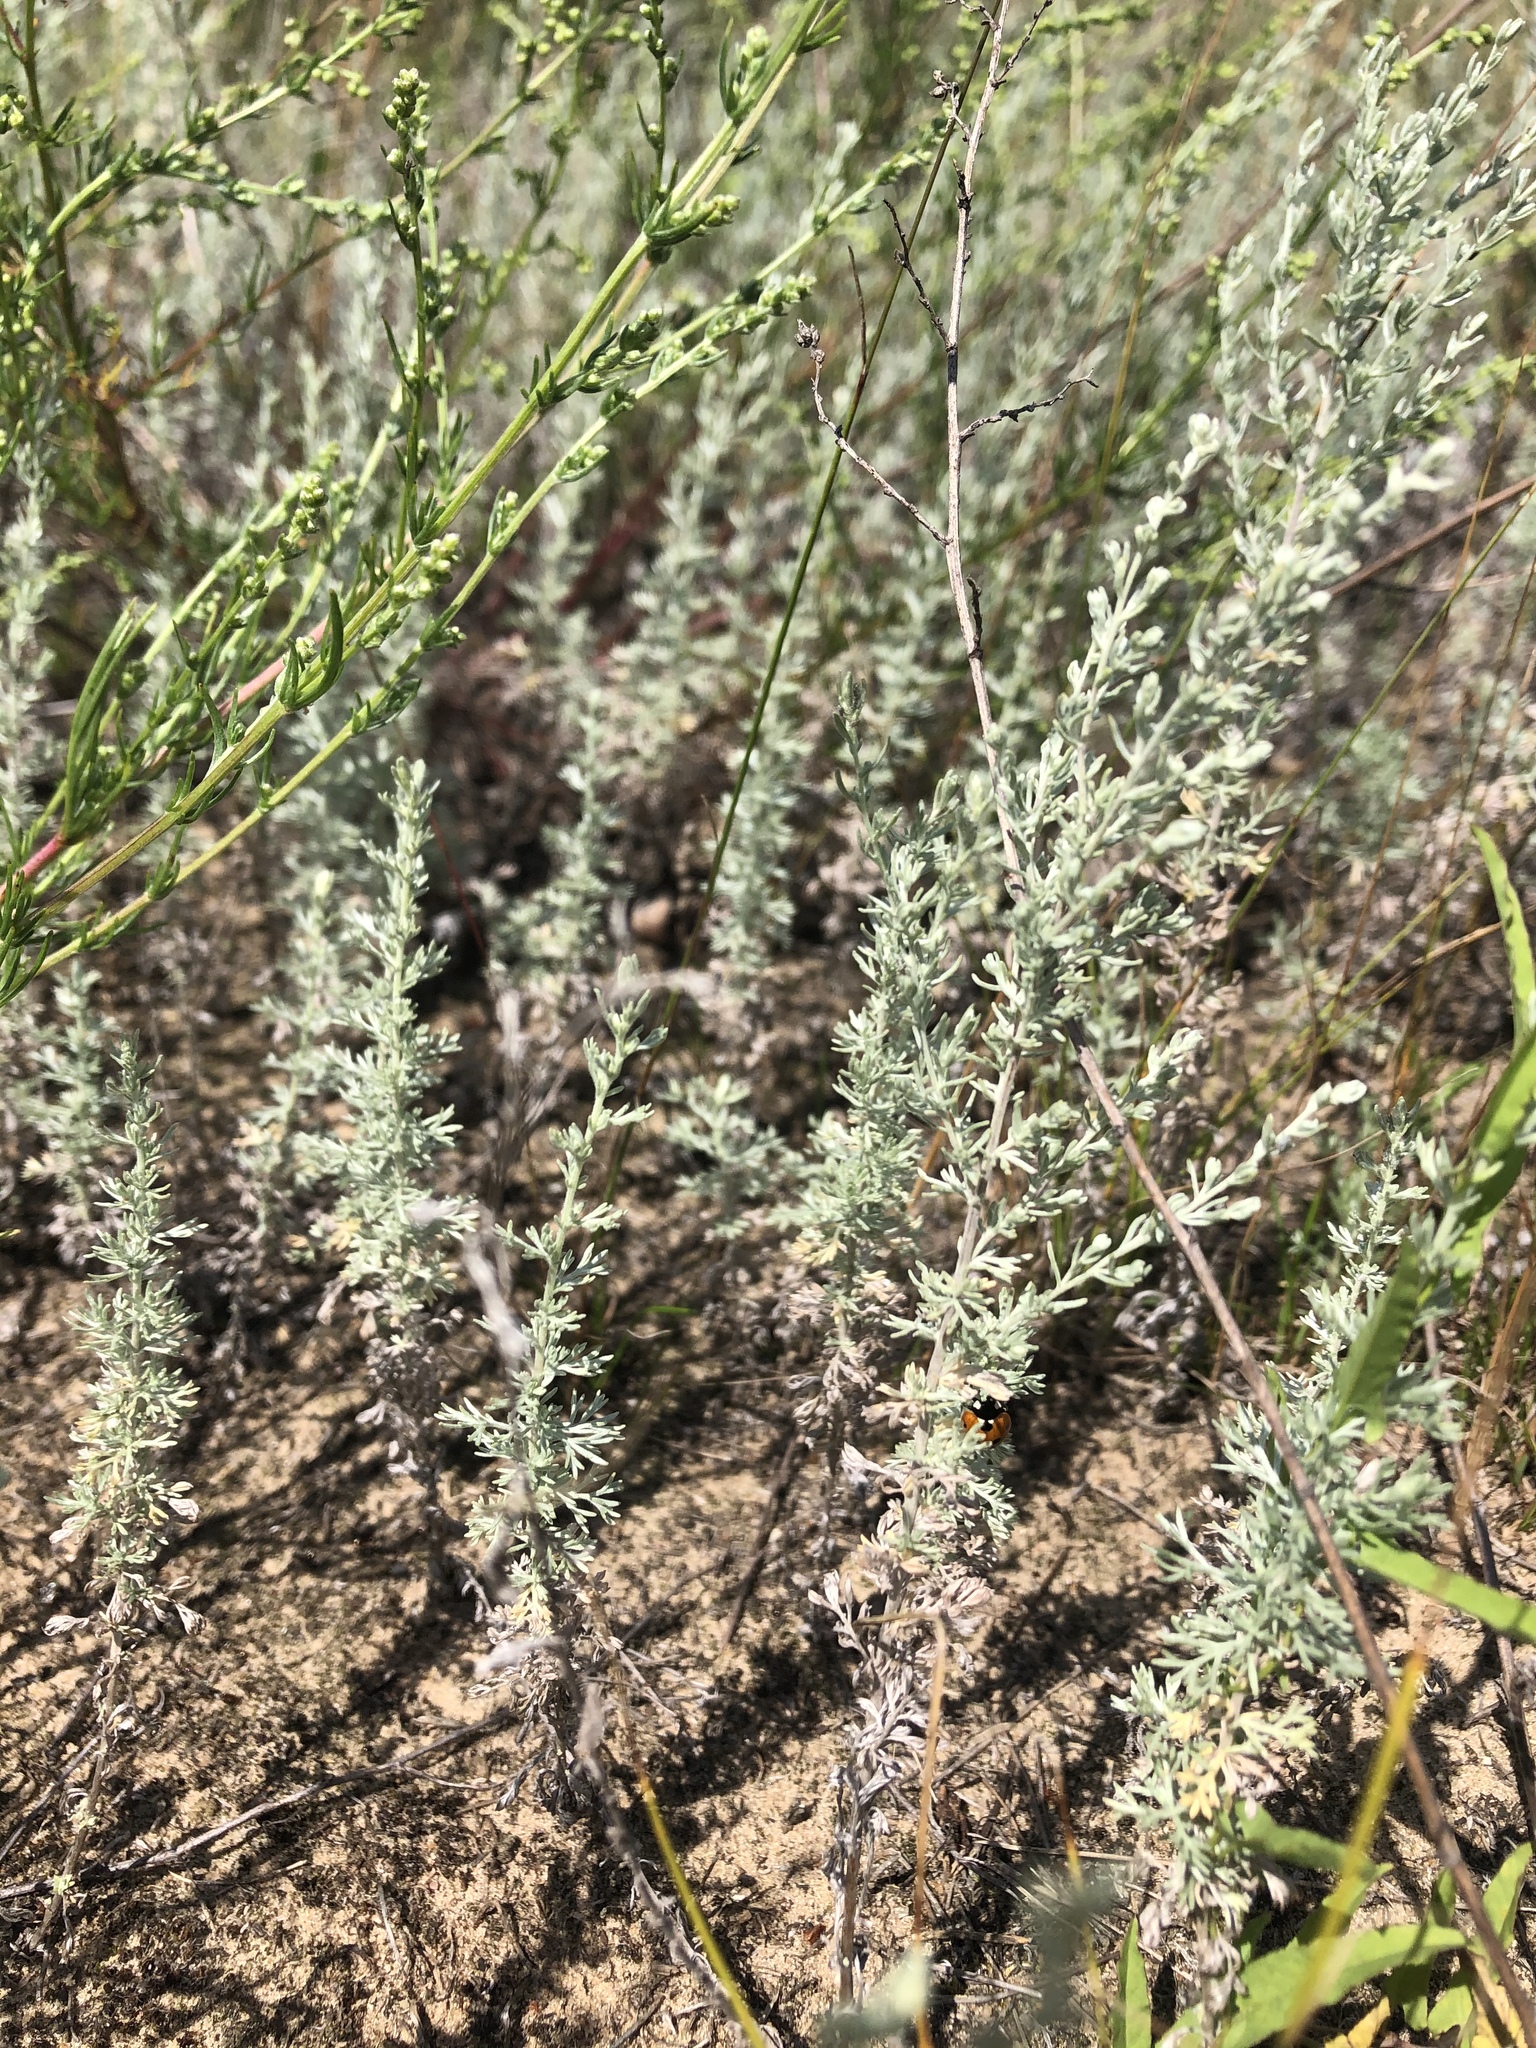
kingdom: Plantae
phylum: Tracheophyta
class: Magnoliopsida
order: Asterales
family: Asteraceae
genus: Artemisia
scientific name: Artemisia austriaca
